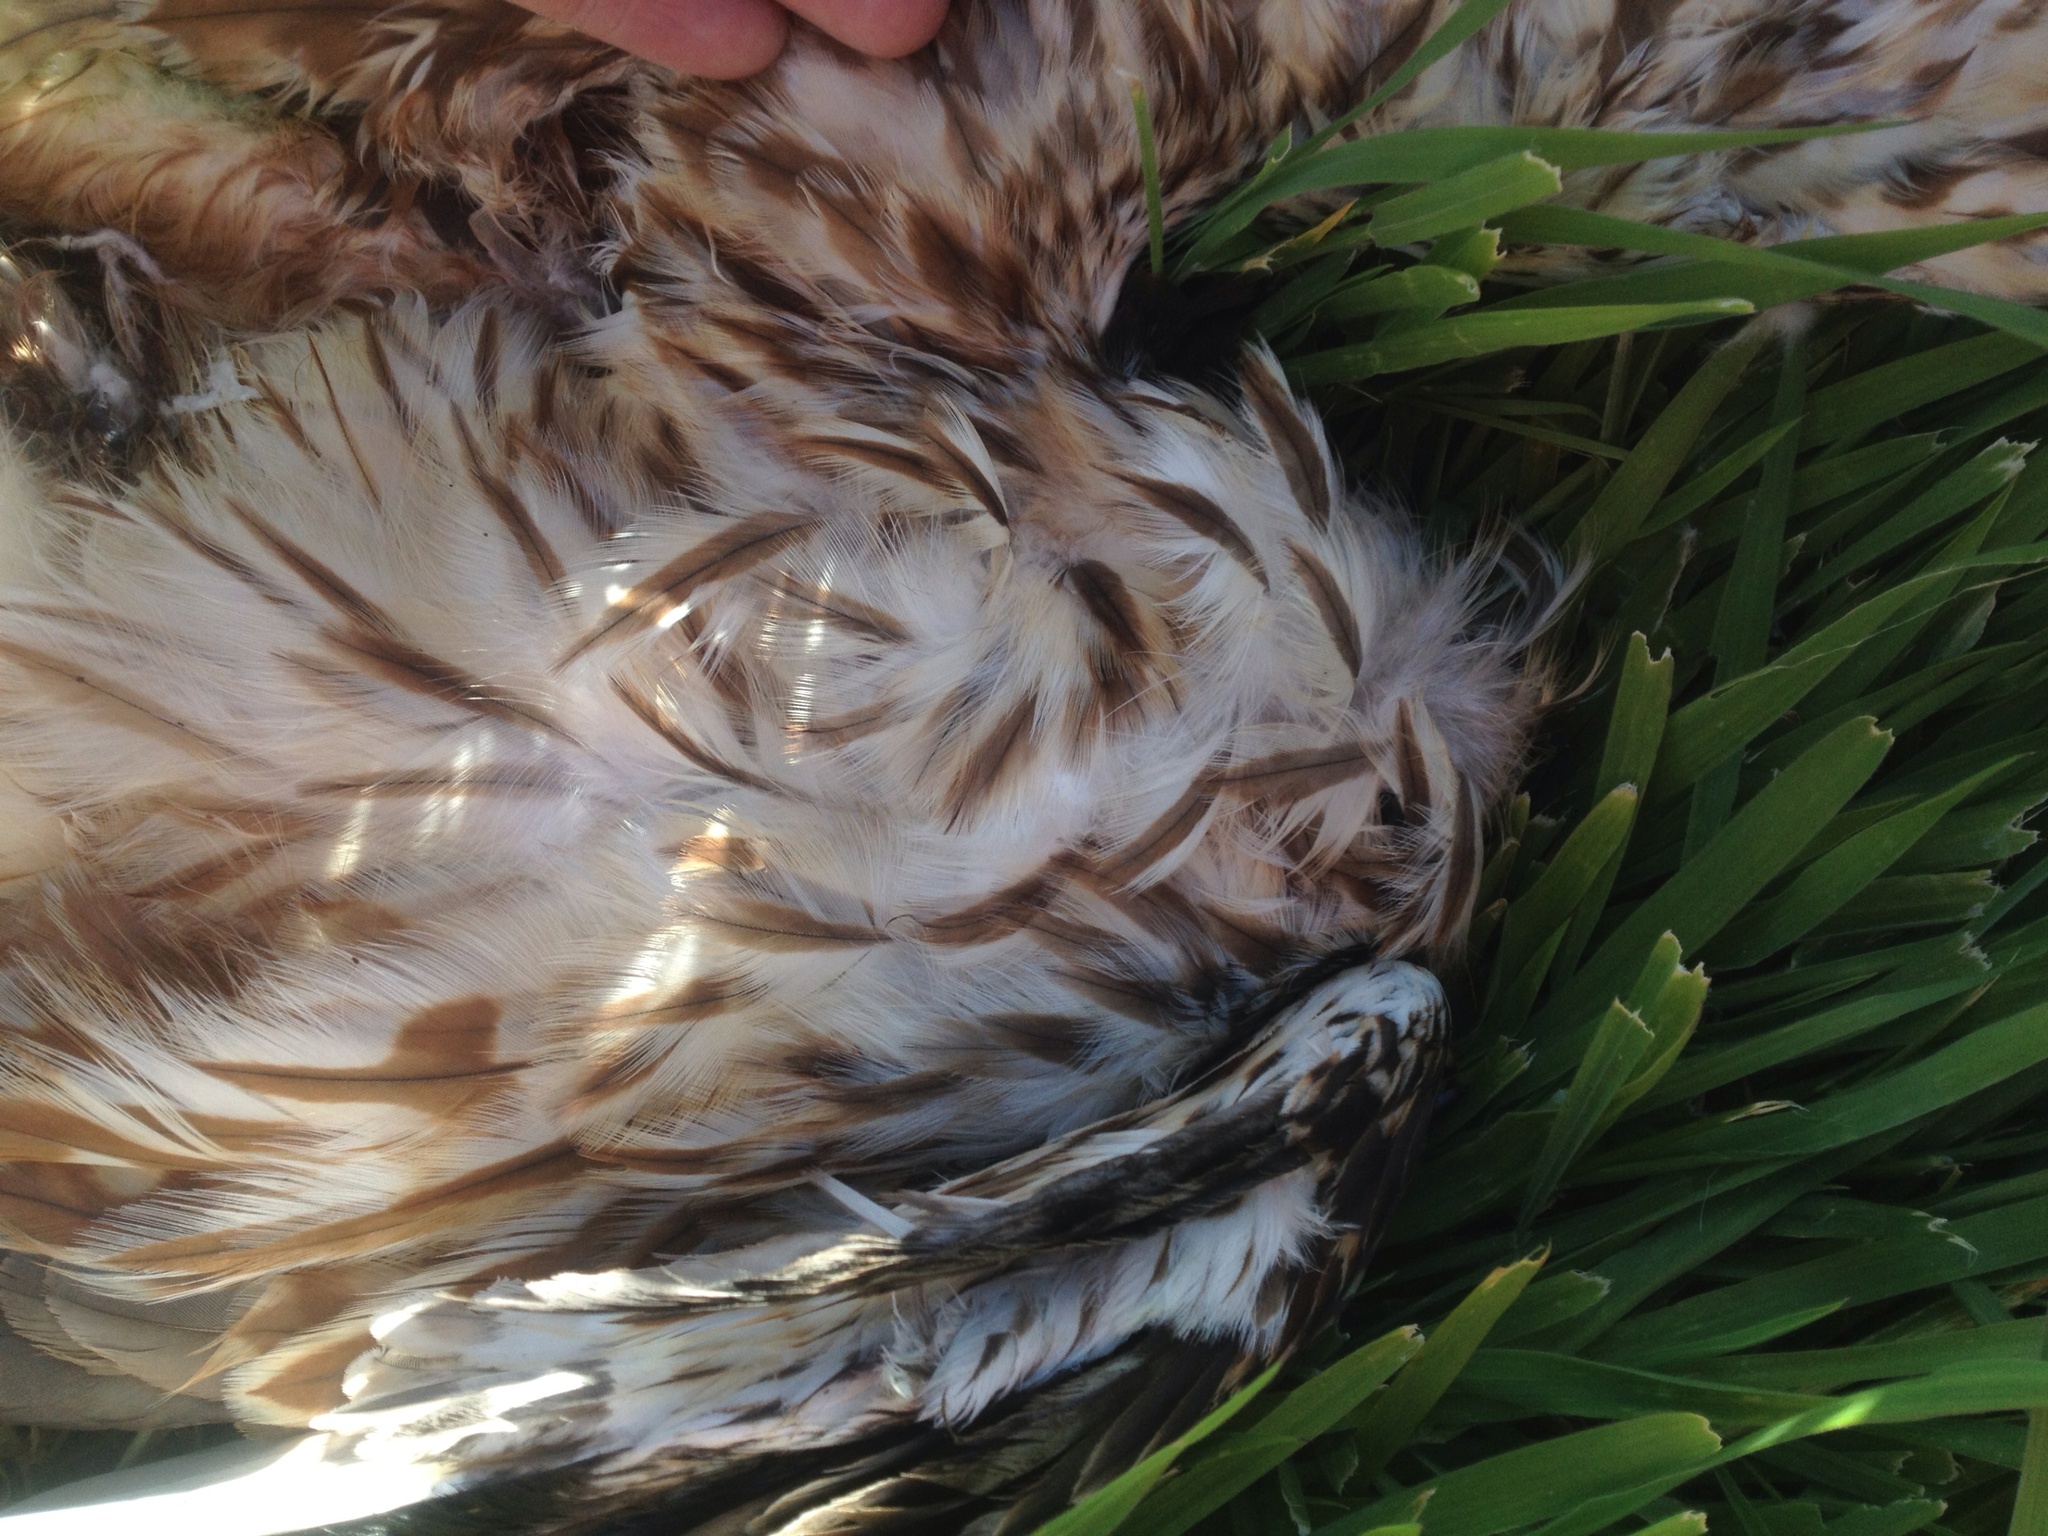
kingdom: Animalia
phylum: Chordata
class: Aves
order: Accipitriformes
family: Accipitridae
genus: Circus
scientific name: Circus approximans
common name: Swamp harrier
